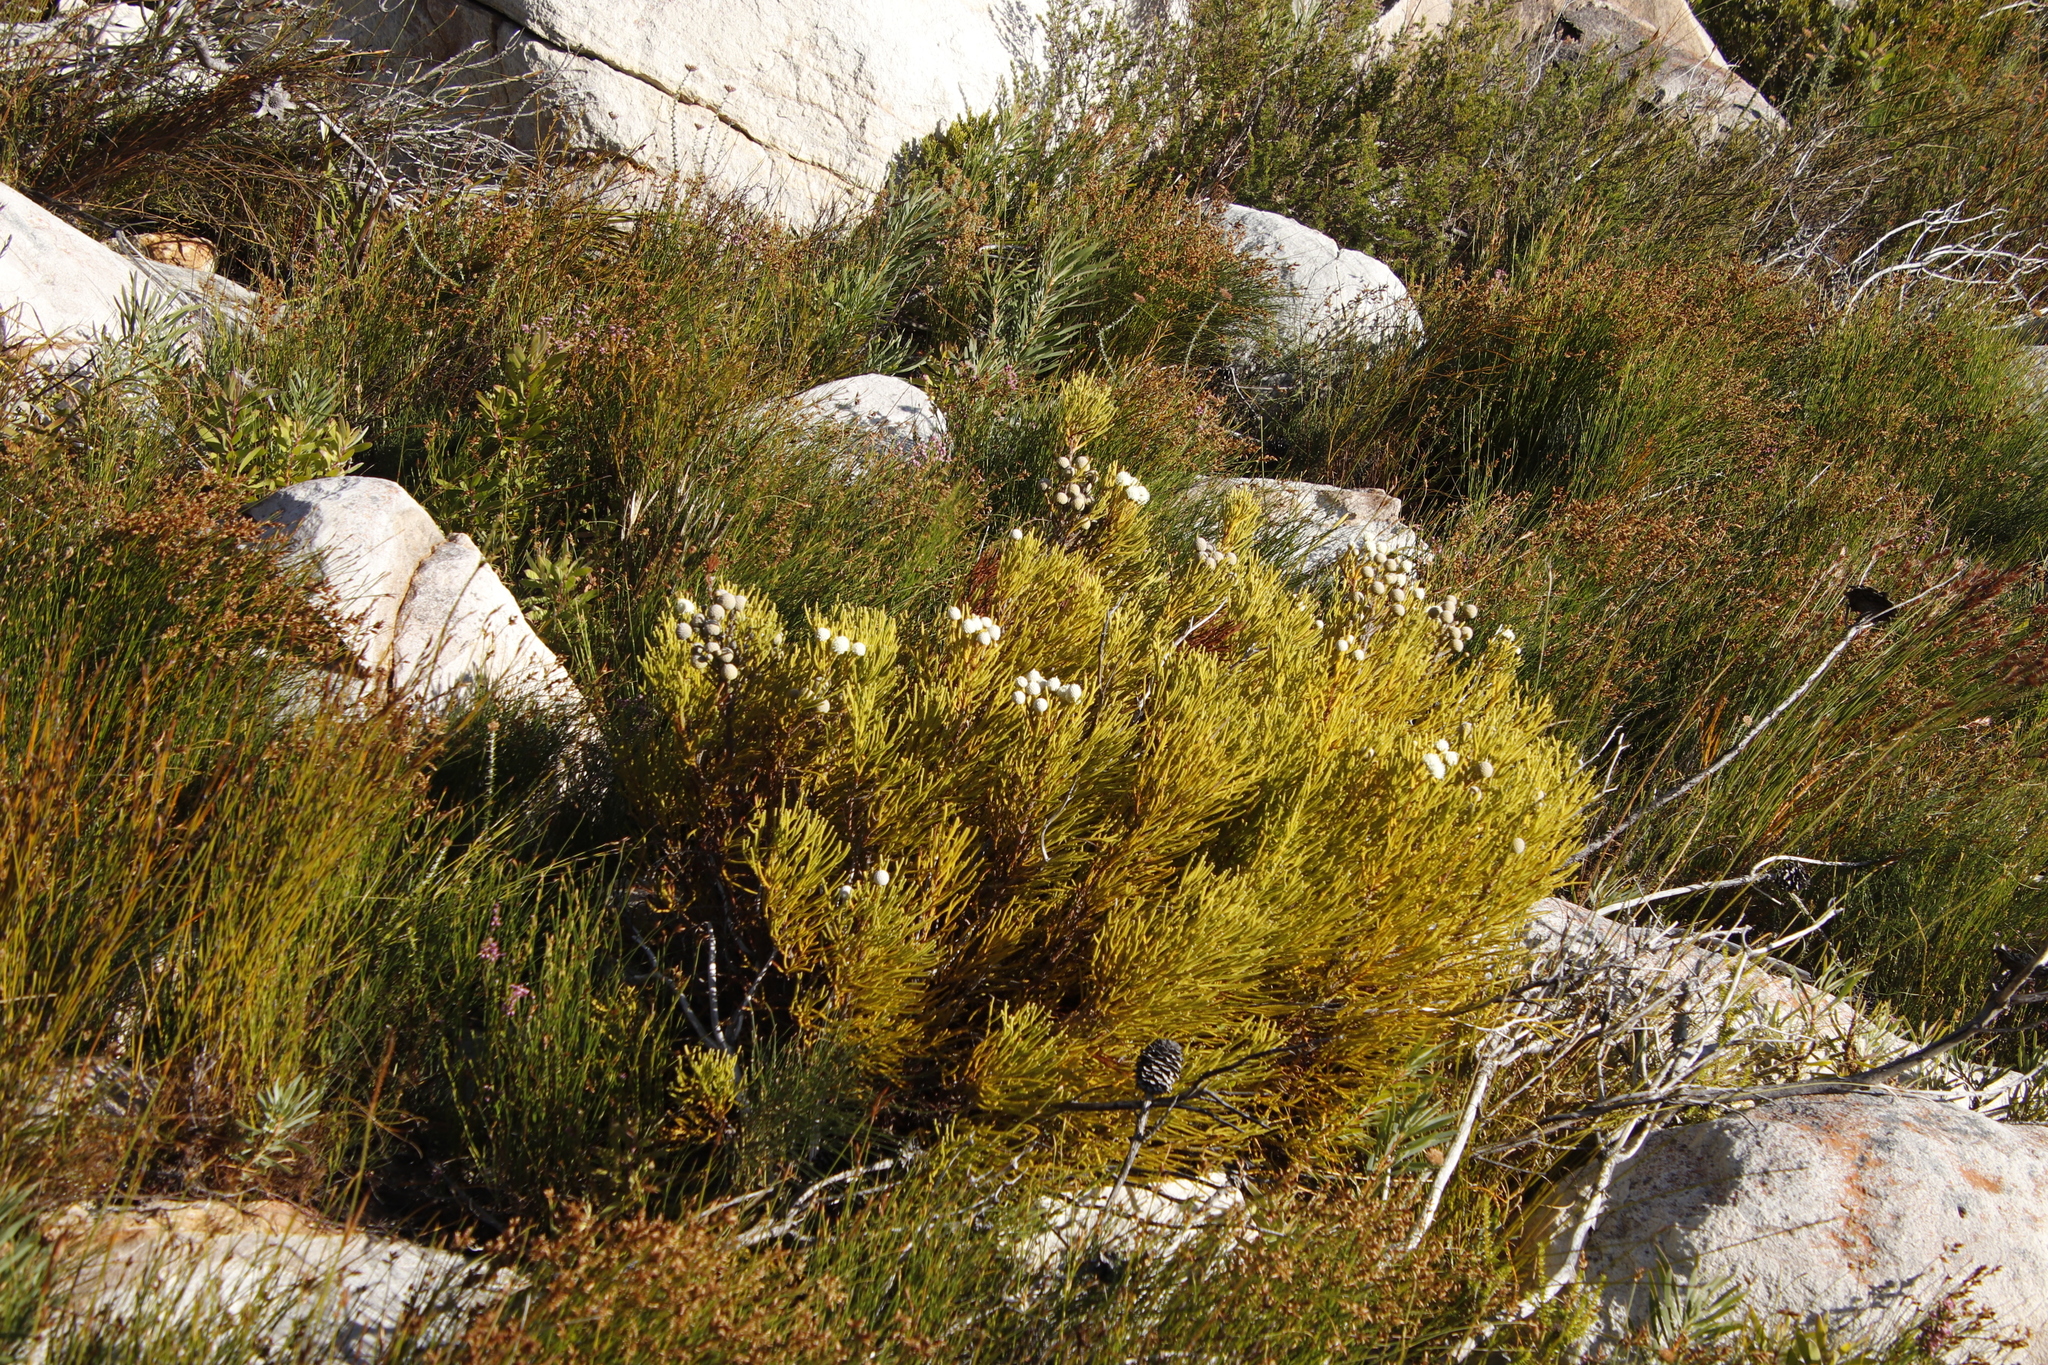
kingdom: Plantae
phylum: Tracheophyta
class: Magnoliopsida
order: Bruniales
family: Bruniaceae
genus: Brunia
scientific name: Brunia noduliflora
